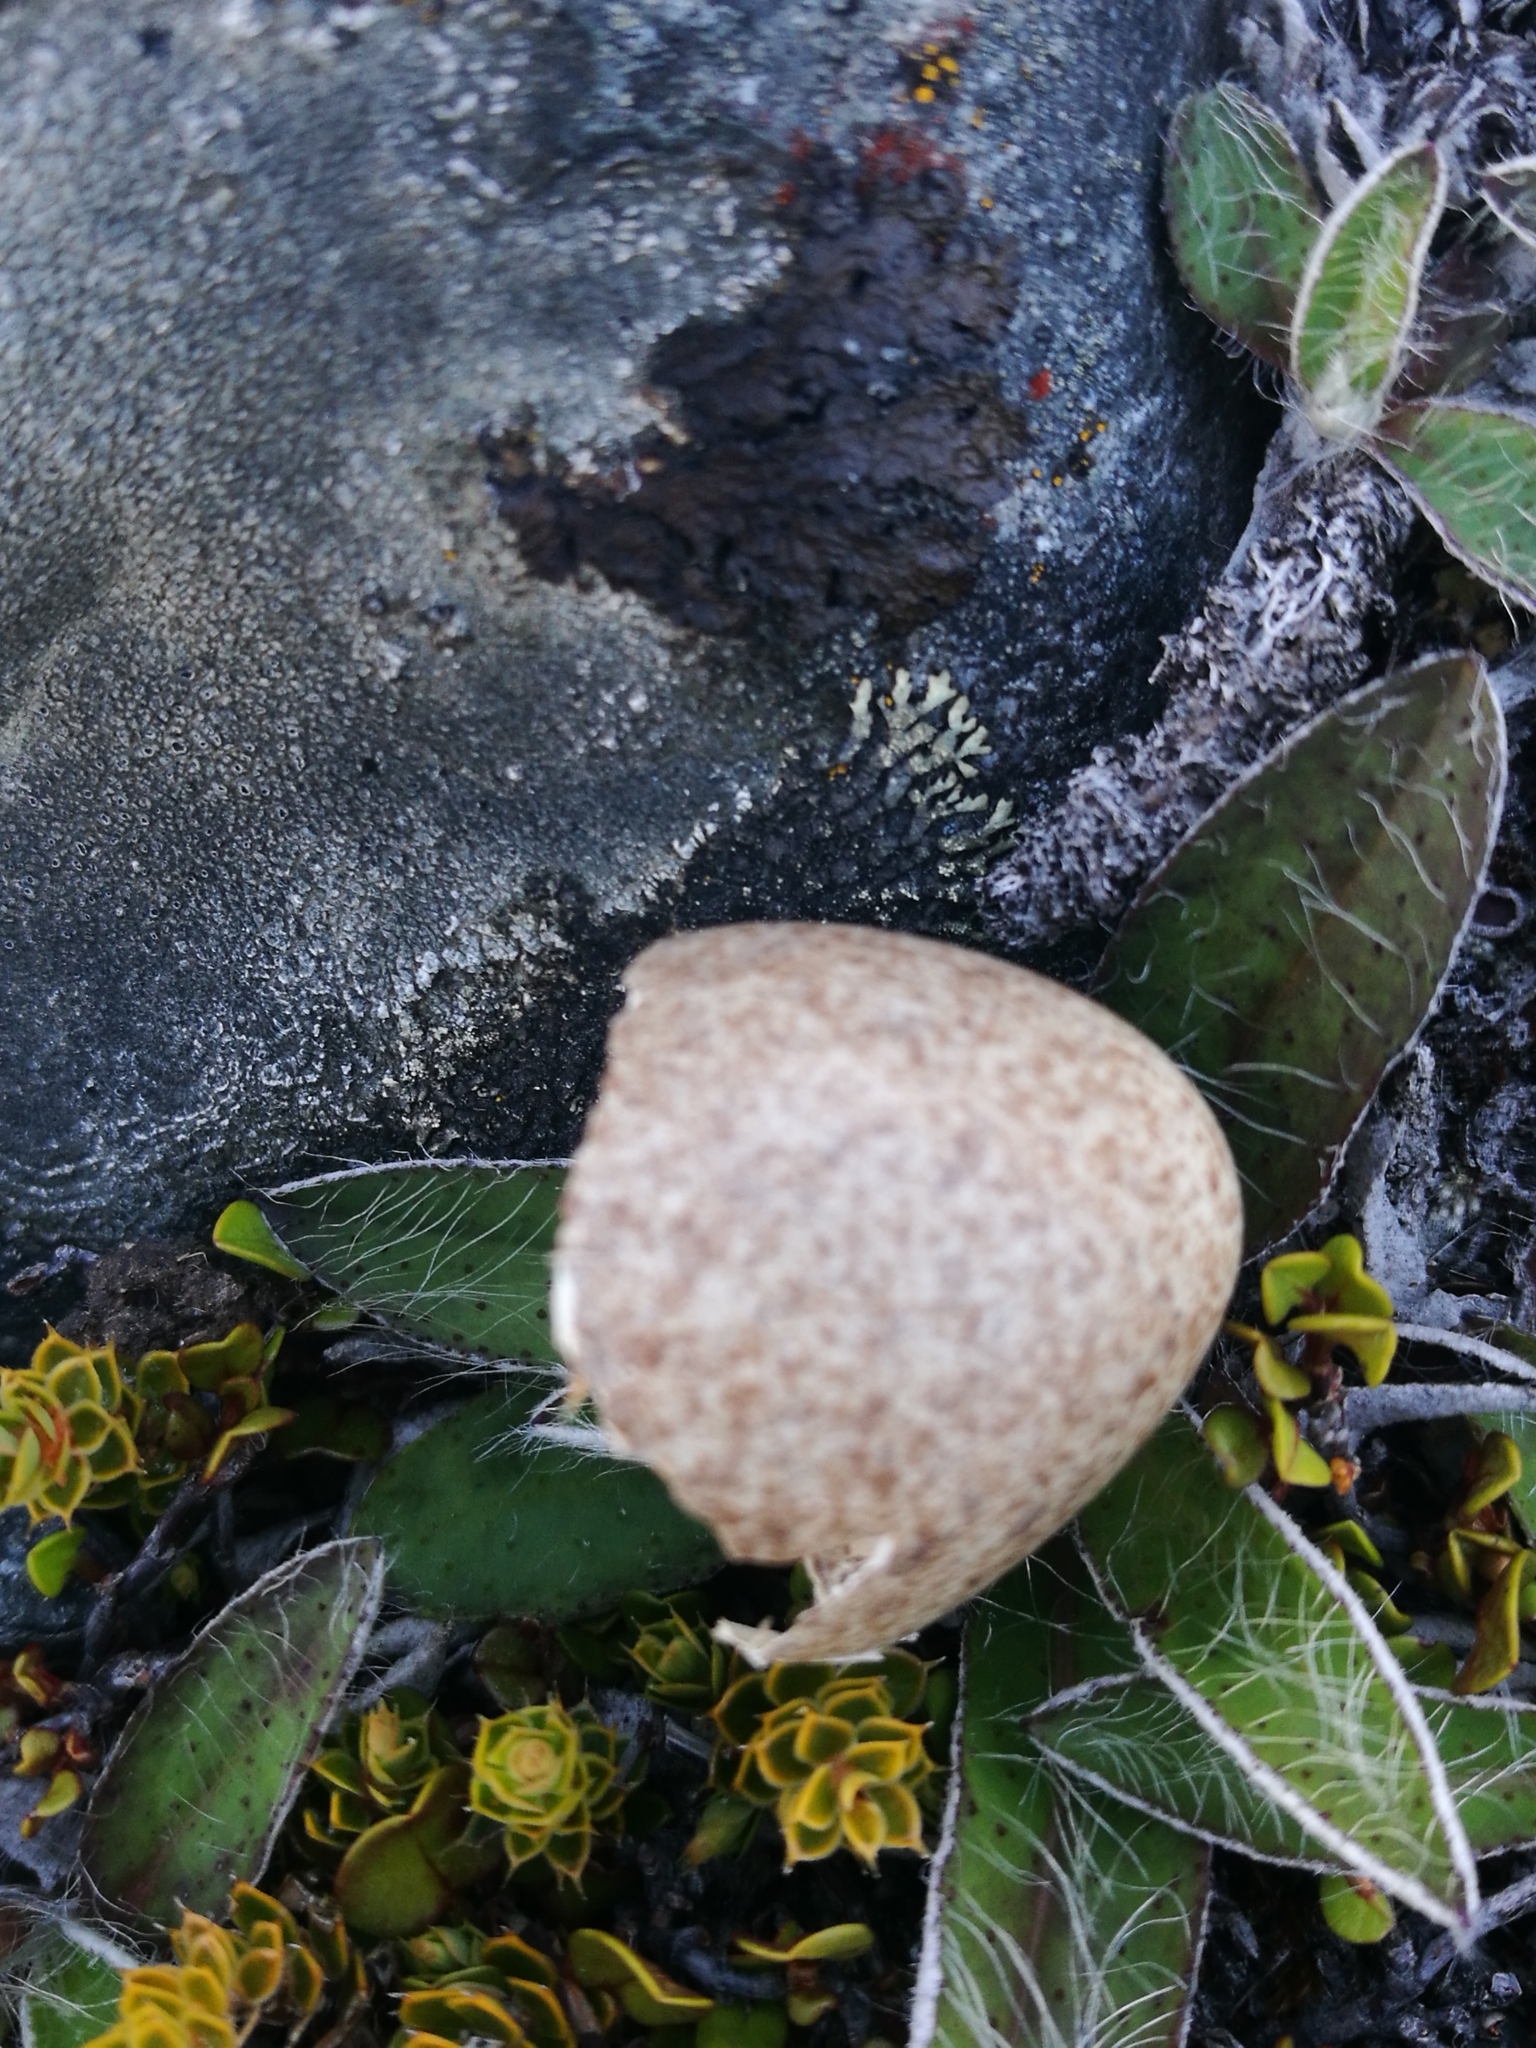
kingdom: Animalia
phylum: Chordata
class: Aves
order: Passeriformes
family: Alaudidae
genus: Alauda
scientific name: Alauda arvensis
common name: Eurasian skylark
